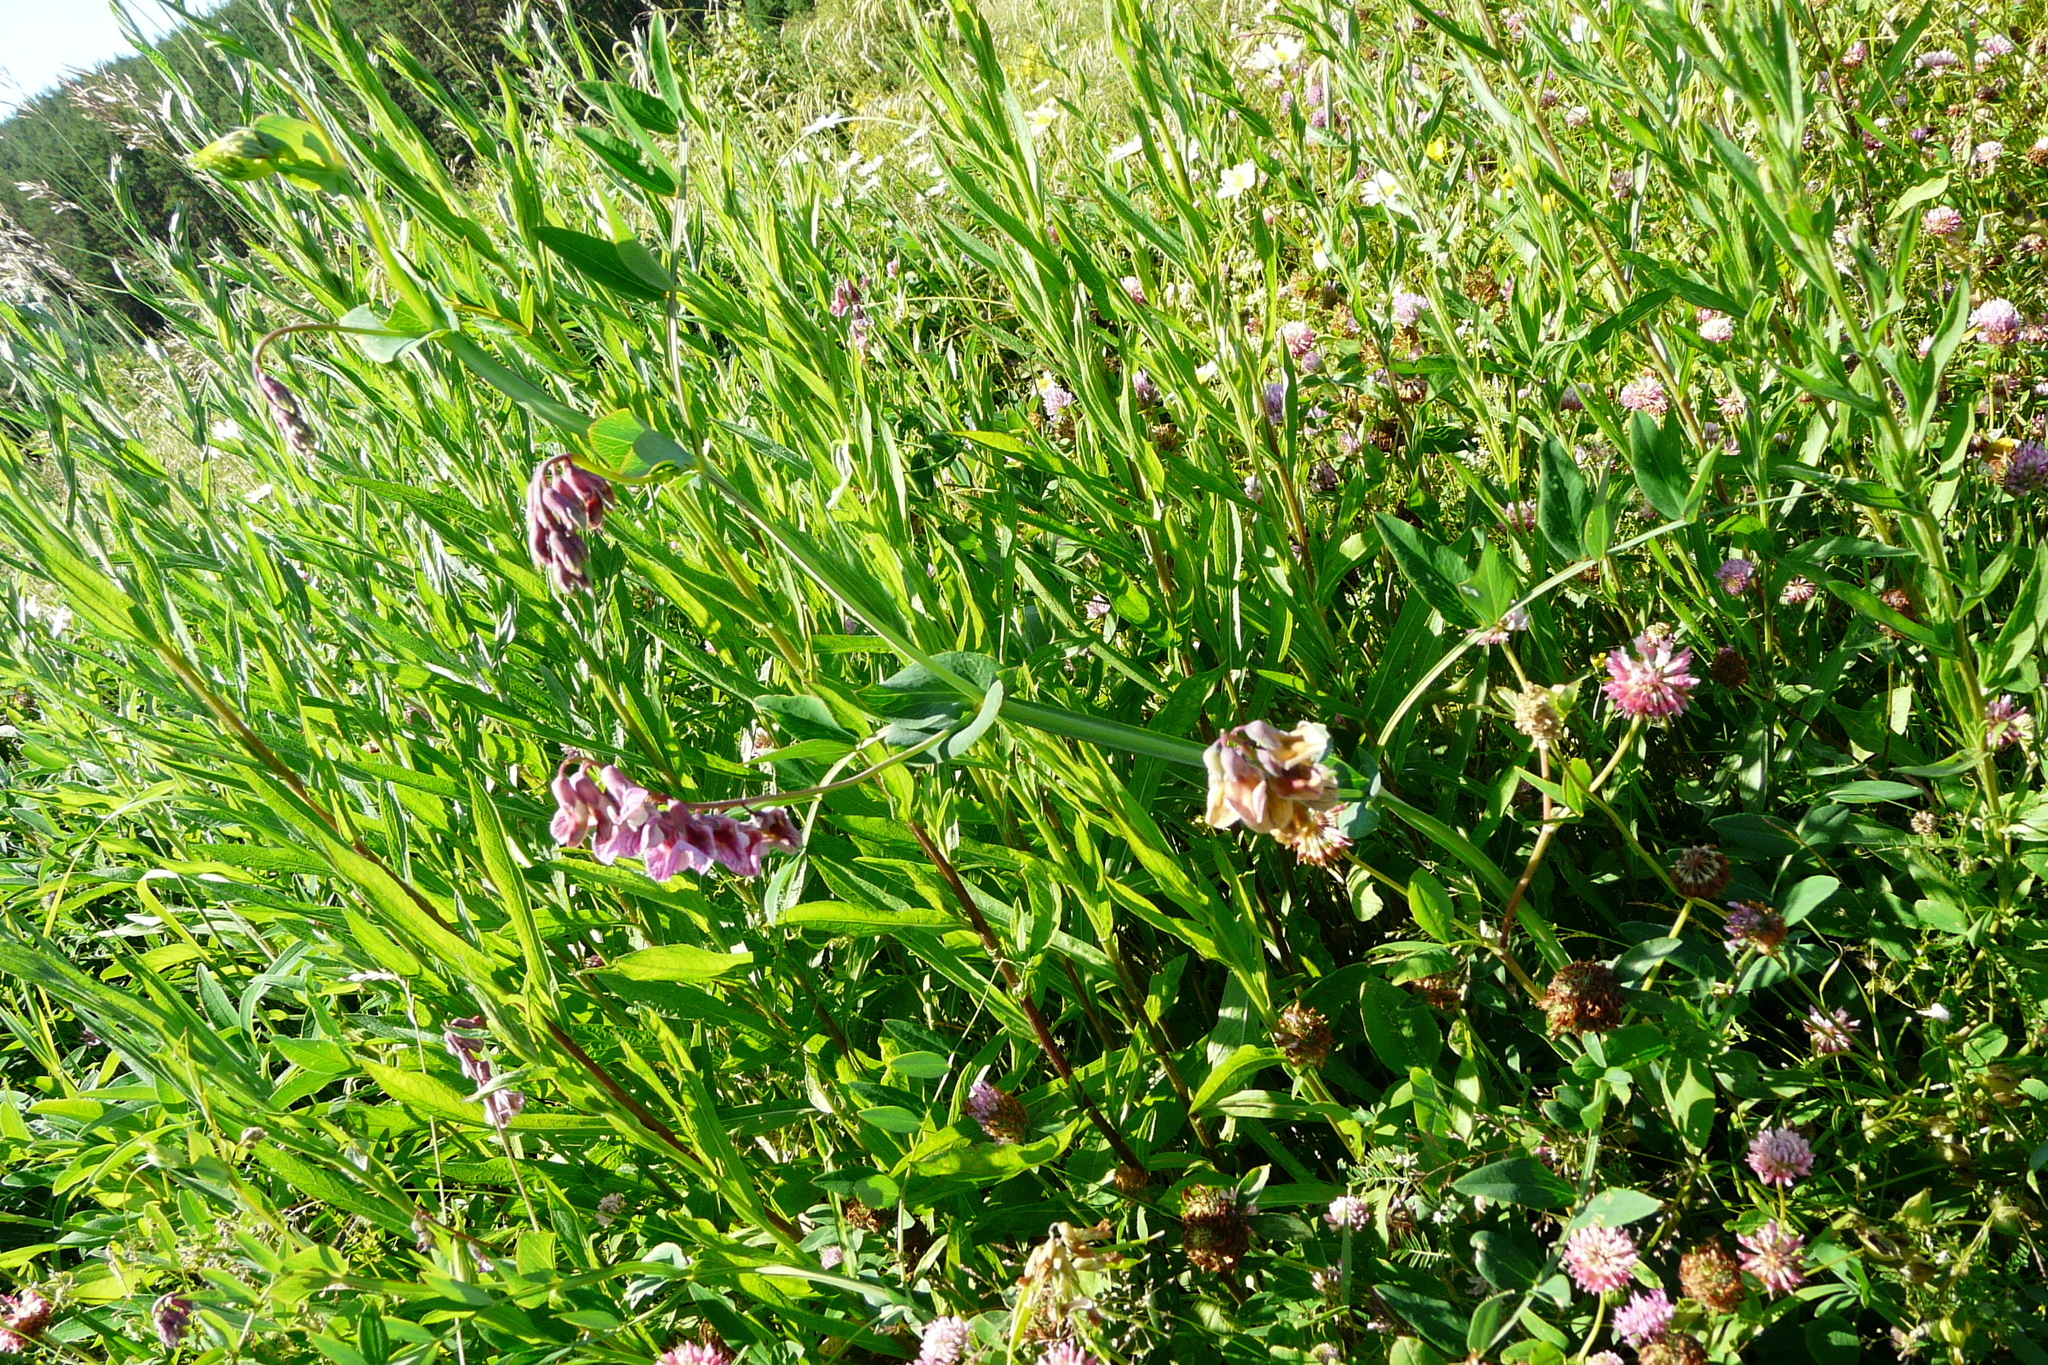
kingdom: Plantae
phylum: Tracheophyta
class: Magnoliopsida
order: Fabales
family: Fabaceae
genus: Lathyrus
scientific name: Lathyrus pisiformis
